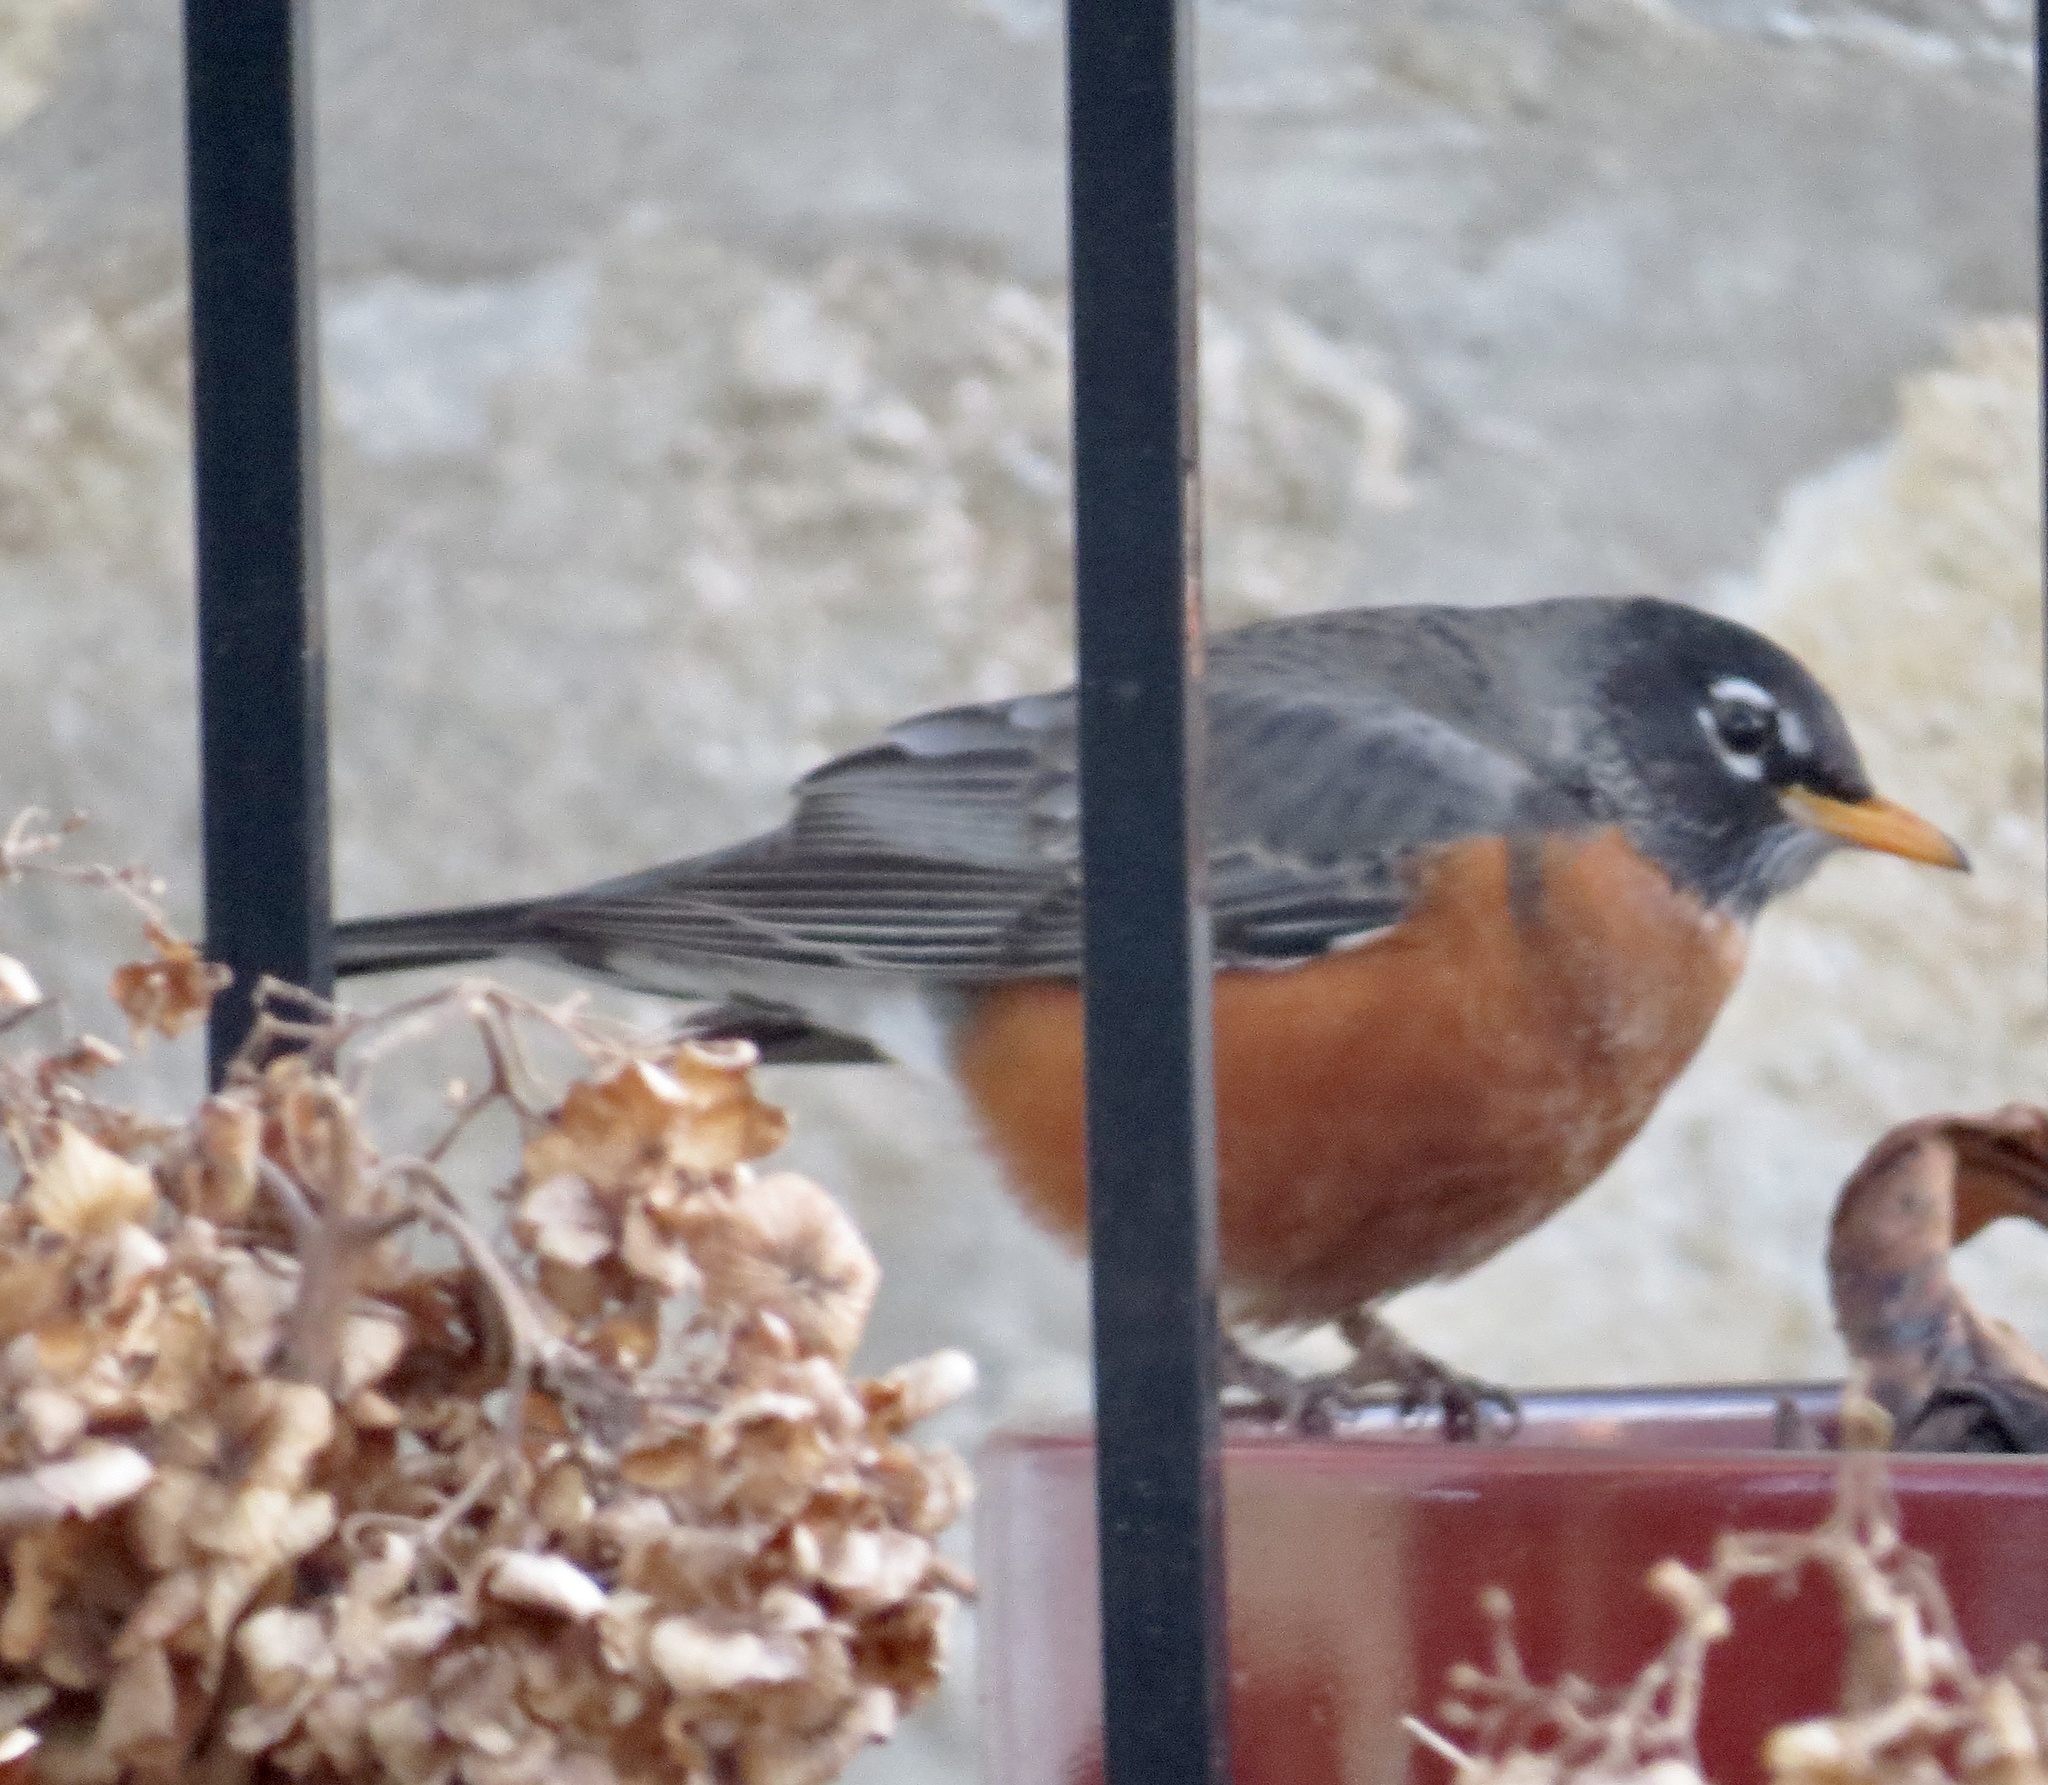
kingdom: Animalia
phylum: Chordata
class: Aves
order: Passeriformes
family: Turdidae
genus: Turdus
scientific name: Turdus migratorius
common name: American robin
